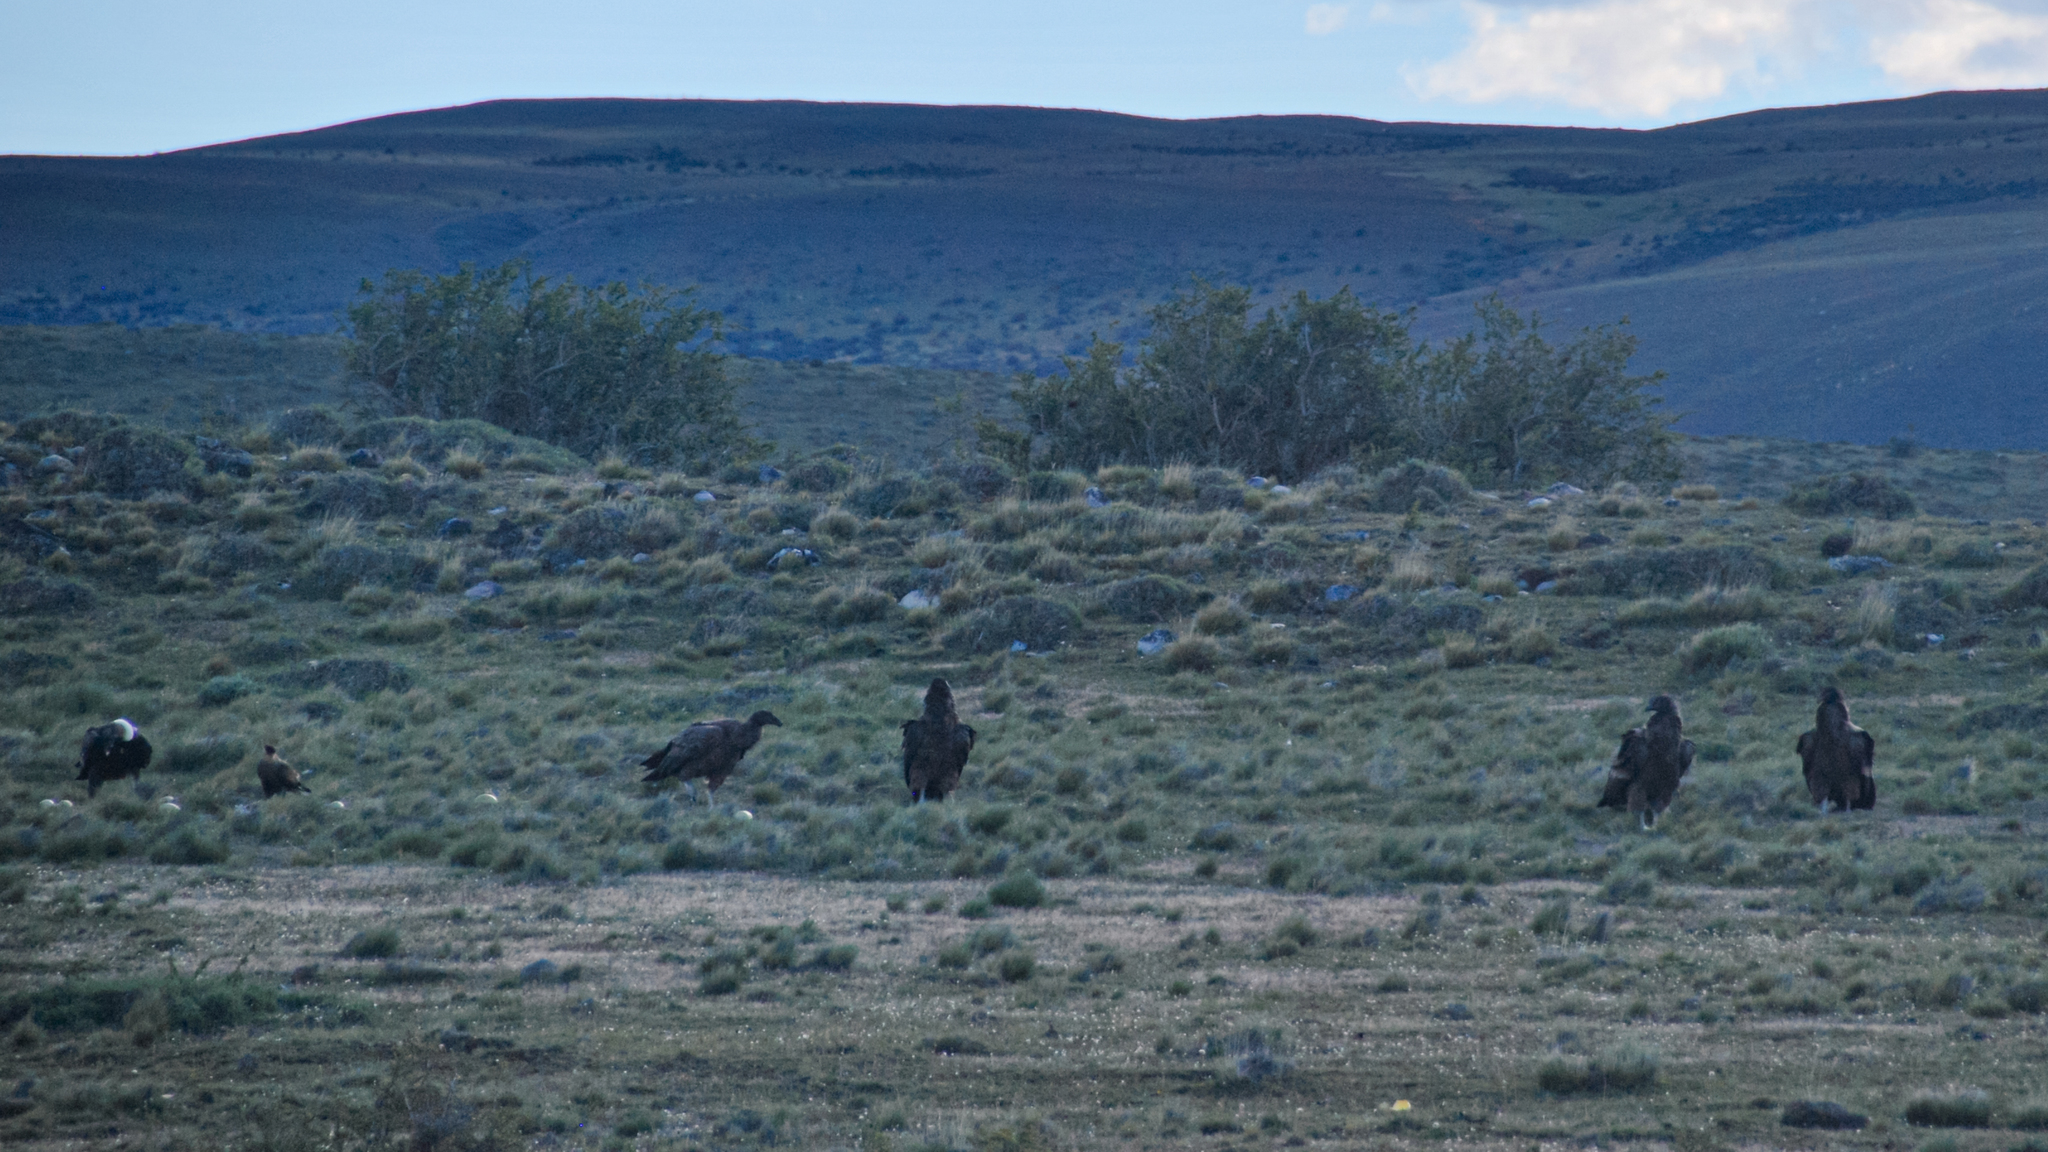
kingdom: Animalia
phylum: Chordata
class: Aves
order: Accipitriformes
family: Cathartidae
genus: Vultur
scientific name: Vultur gryphus
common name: Andean condor
